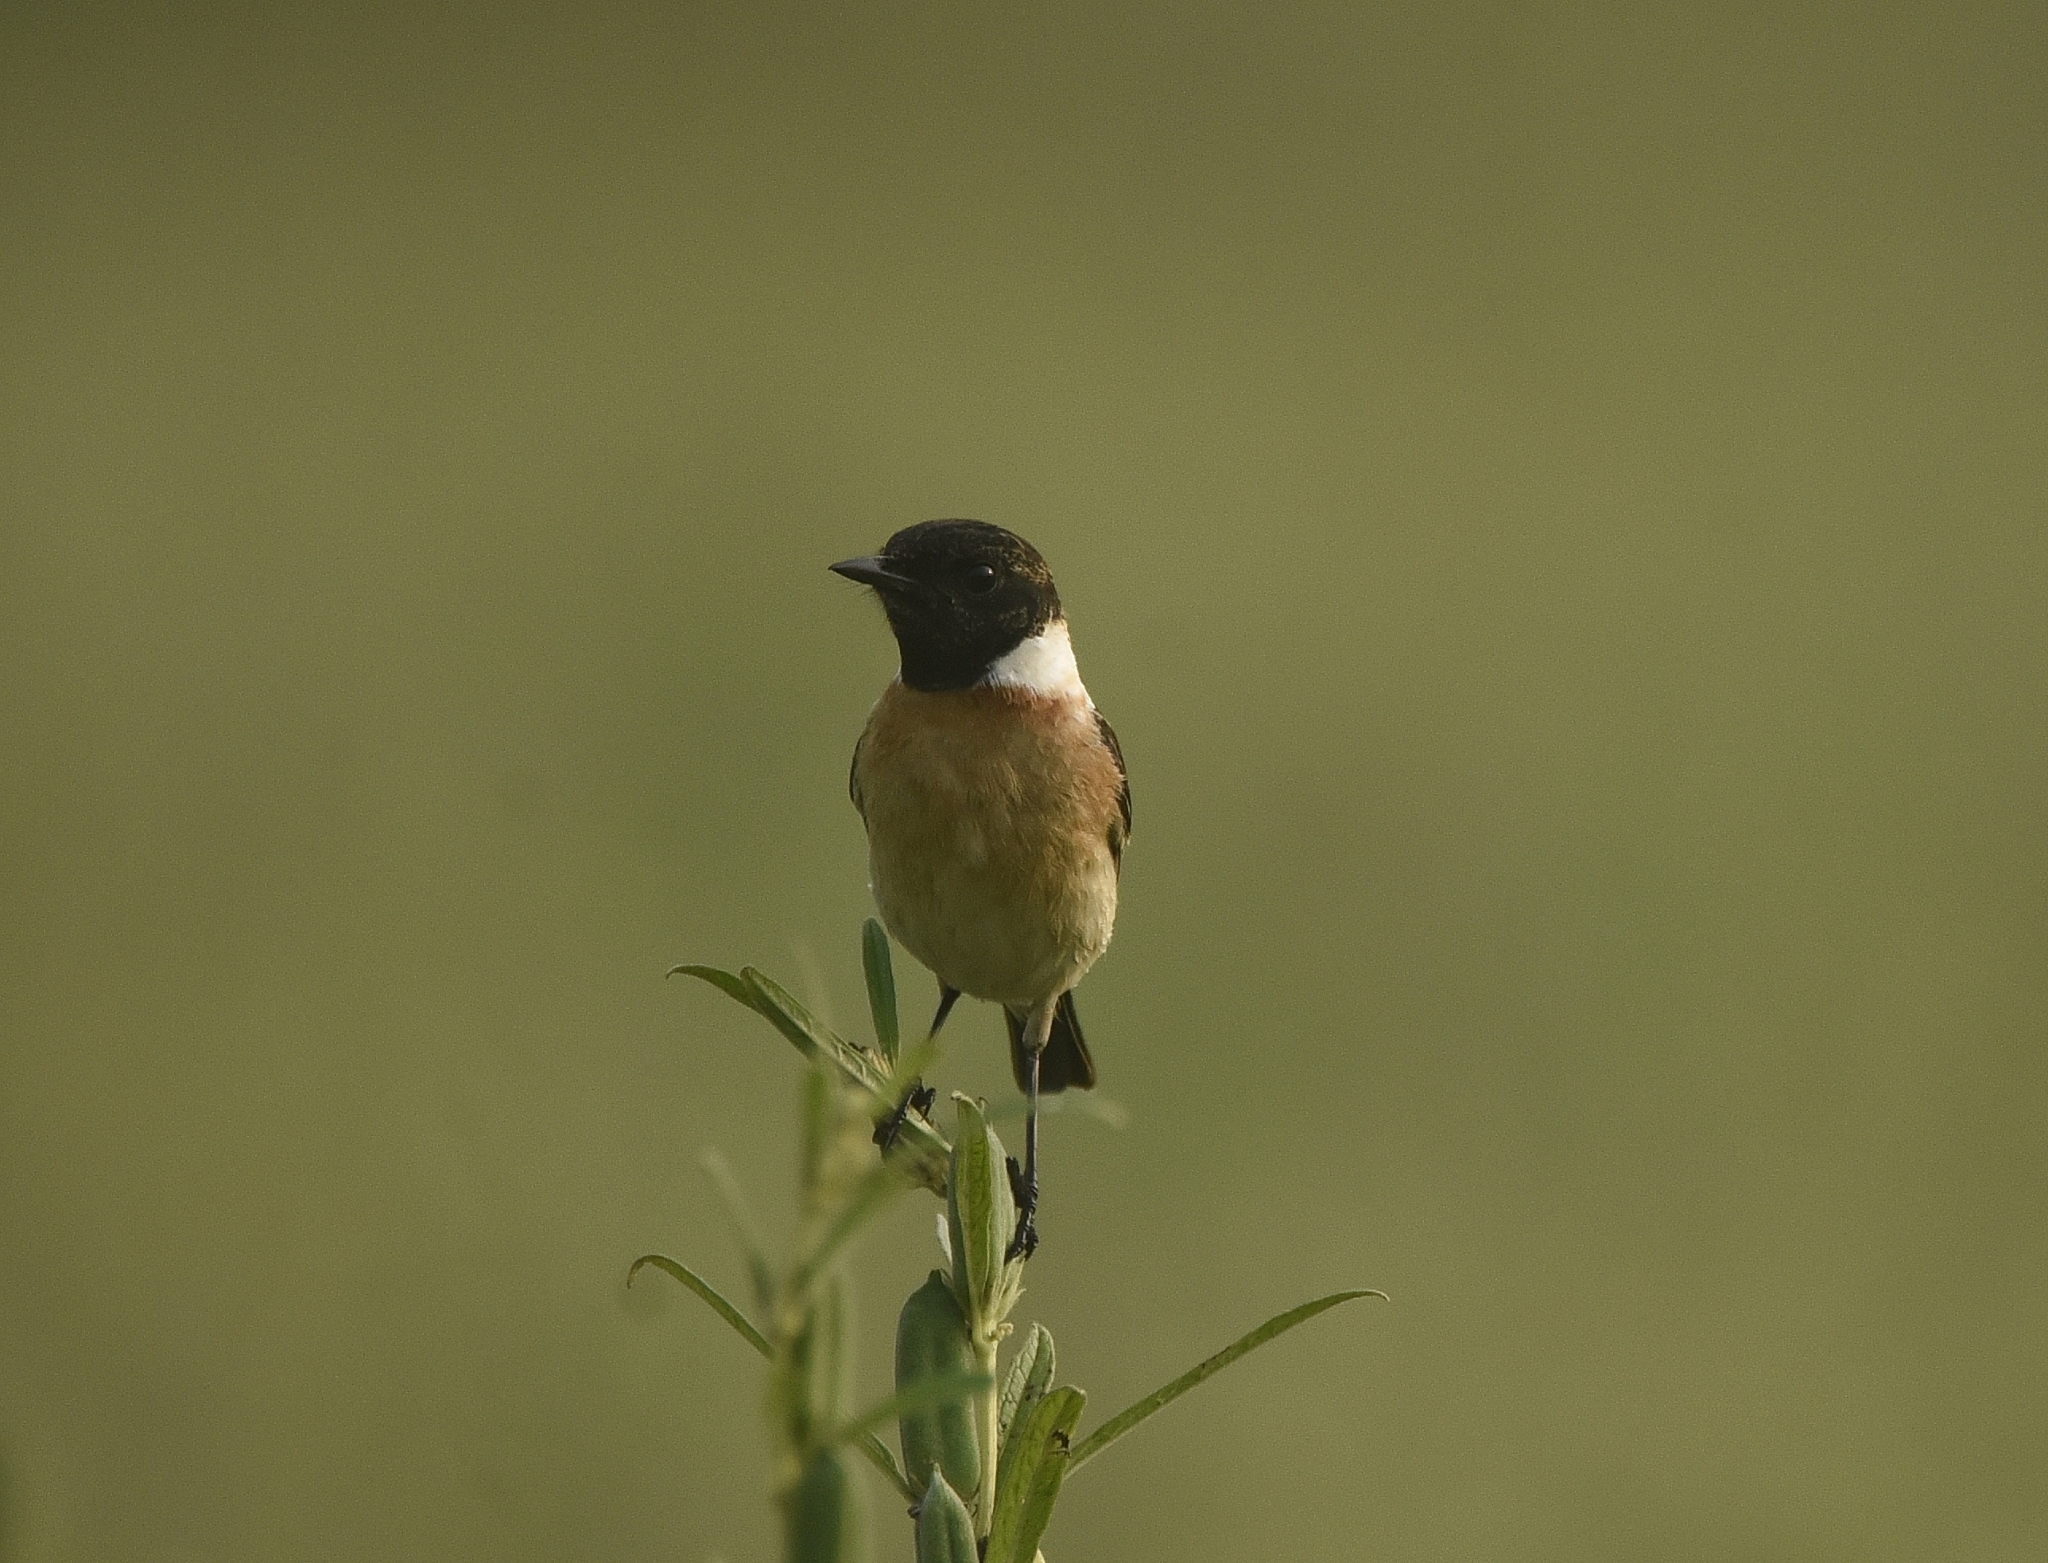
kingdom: Animalia
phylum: Chordata
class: Aves
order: Passeriformes
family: Muscicapidae
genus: Saxicola
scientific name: Saxicola maurus
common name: Siberian stonechat
